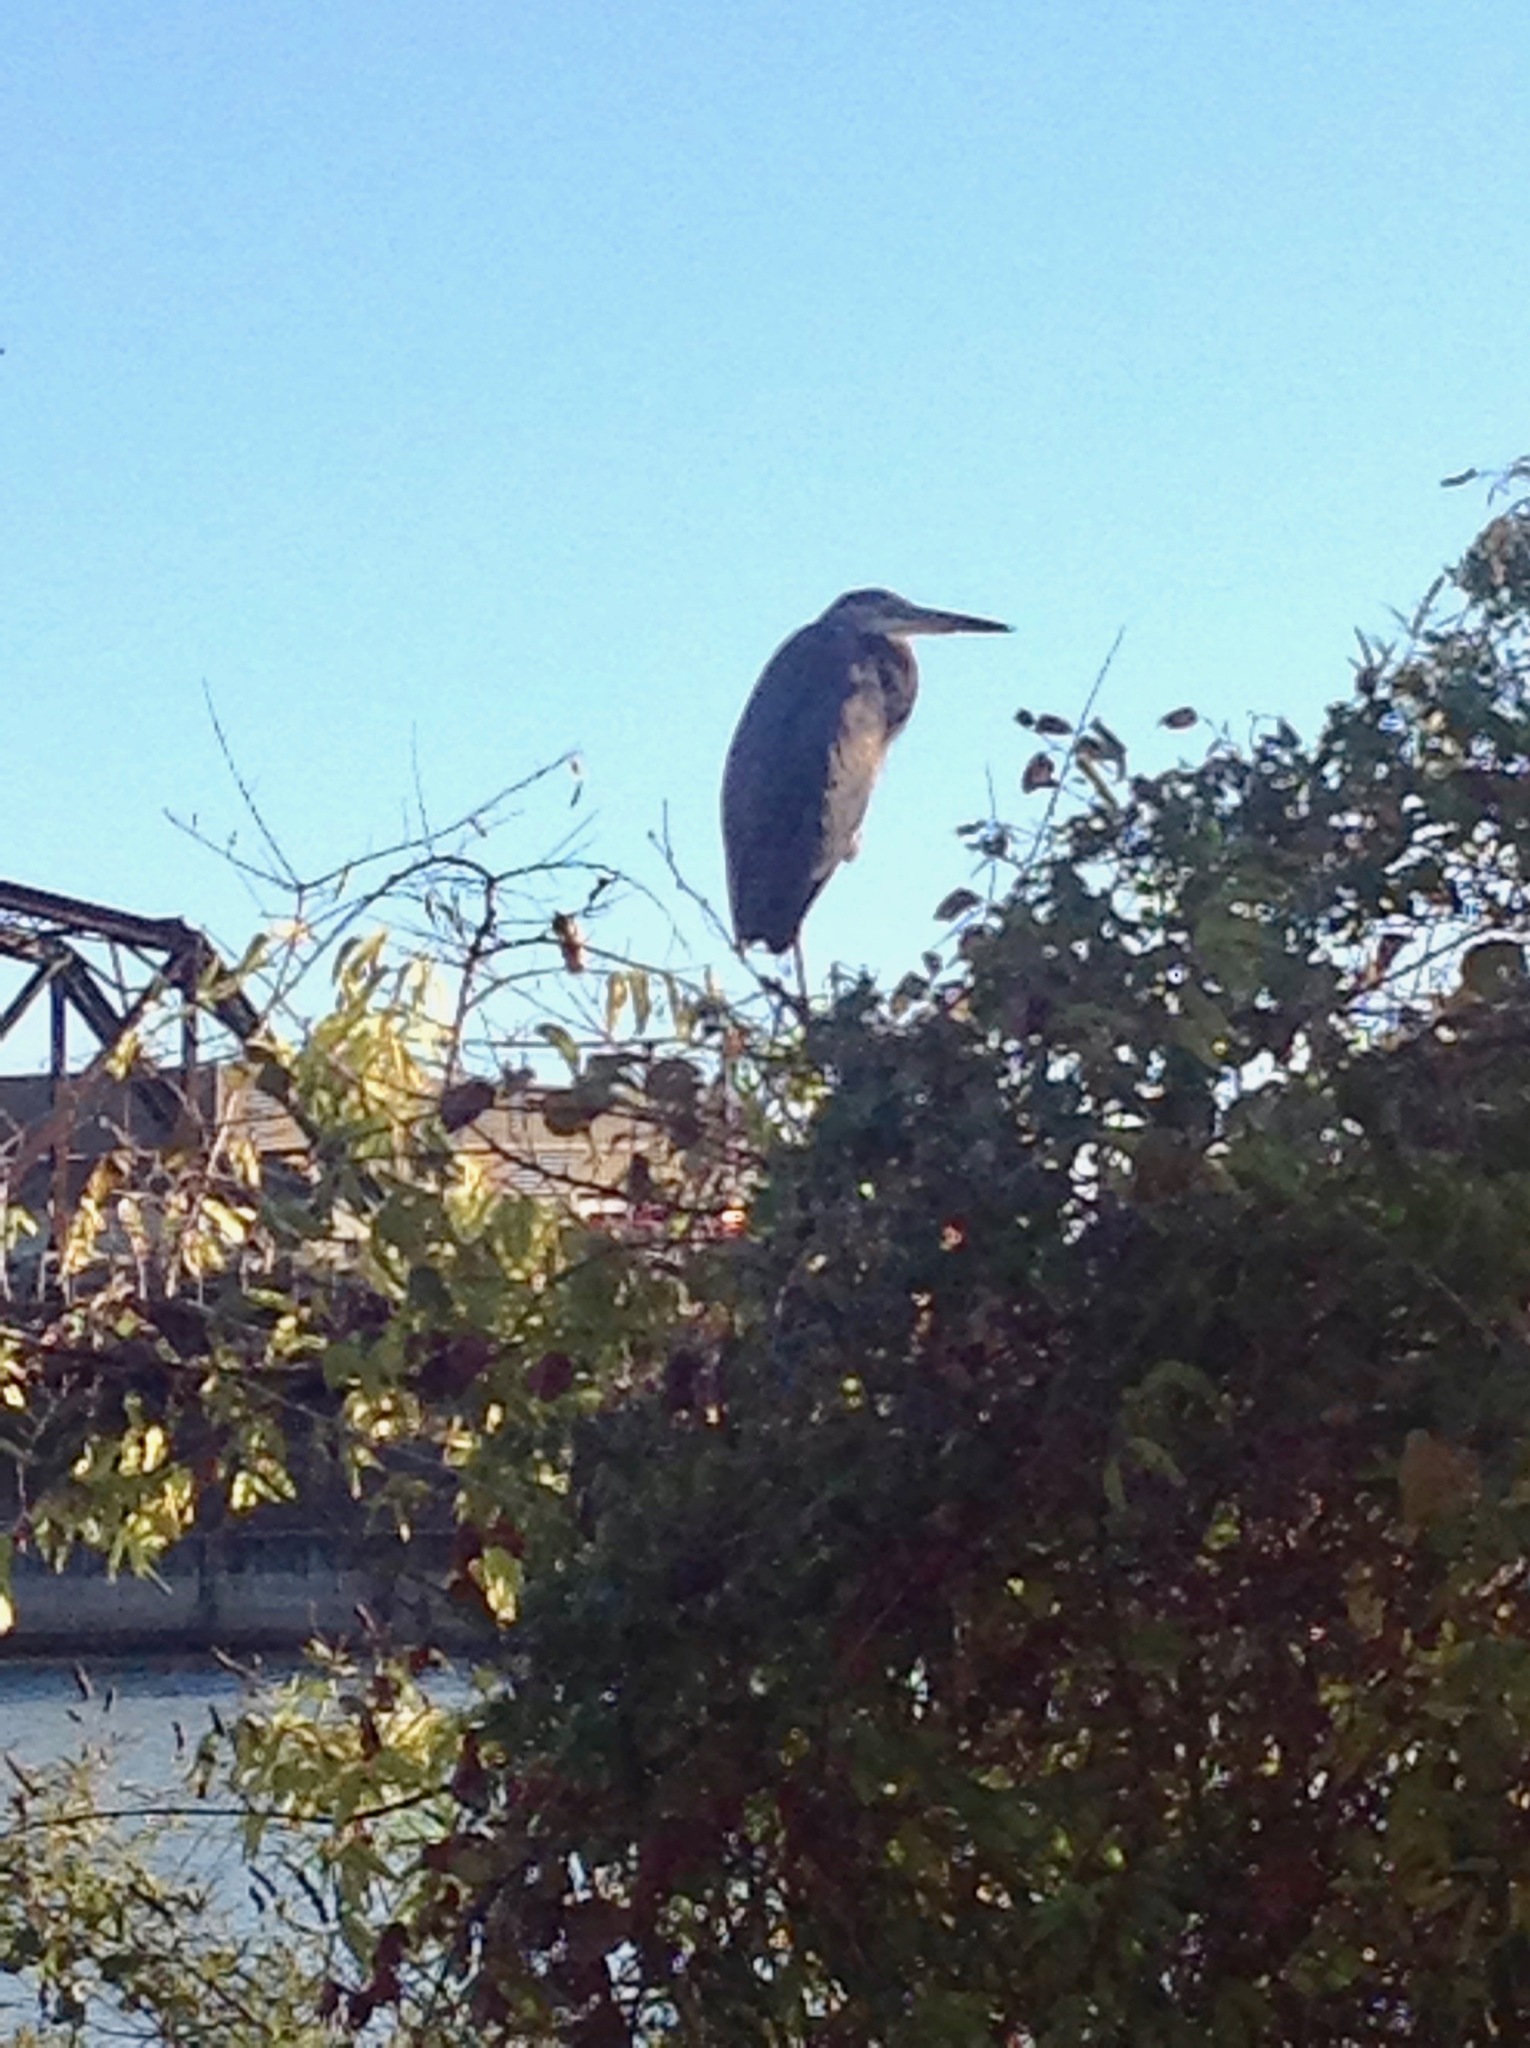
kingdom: Animalia
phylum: Chordata
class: Aves
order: Pelecaniformes
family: Ardeidae
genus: Ardea
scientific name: Ardea herodias
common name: Great blue heron
